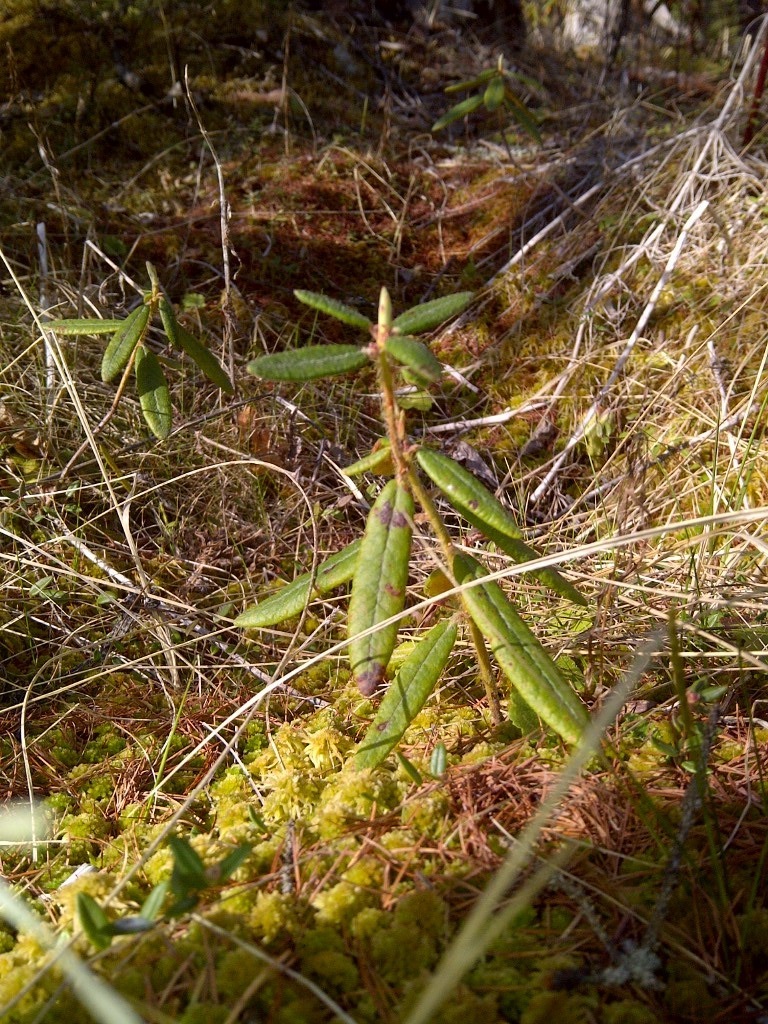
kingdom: Plantae
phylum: Tracheophyta
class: Magnoliopsida
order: Ericales
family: Ericaceae
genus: Rhododendron
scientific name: Rhododendron groenlandicum
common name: Bog labrador tea
